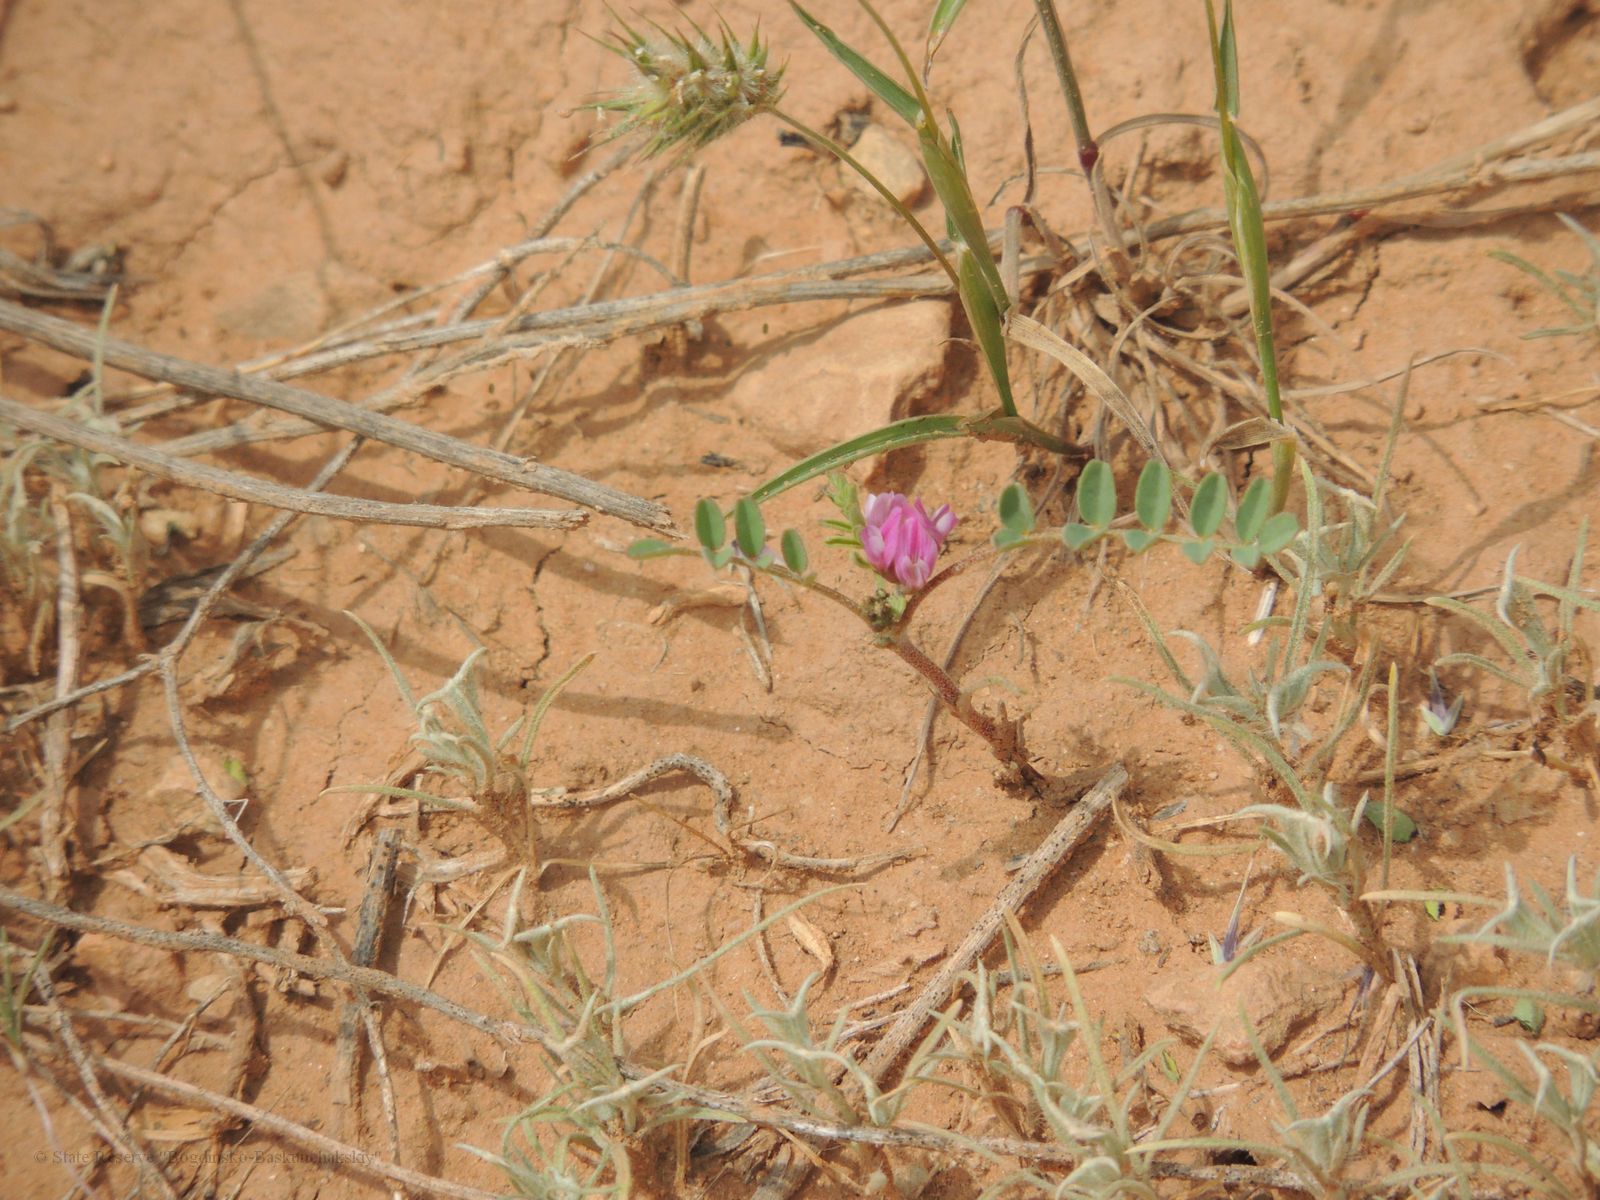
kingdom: Plantae
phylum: Tracheophyta
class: Magnoliopsida
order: Fabales
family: Fabaceae
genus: Astragalus
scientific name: Astragalus oxyglottis
